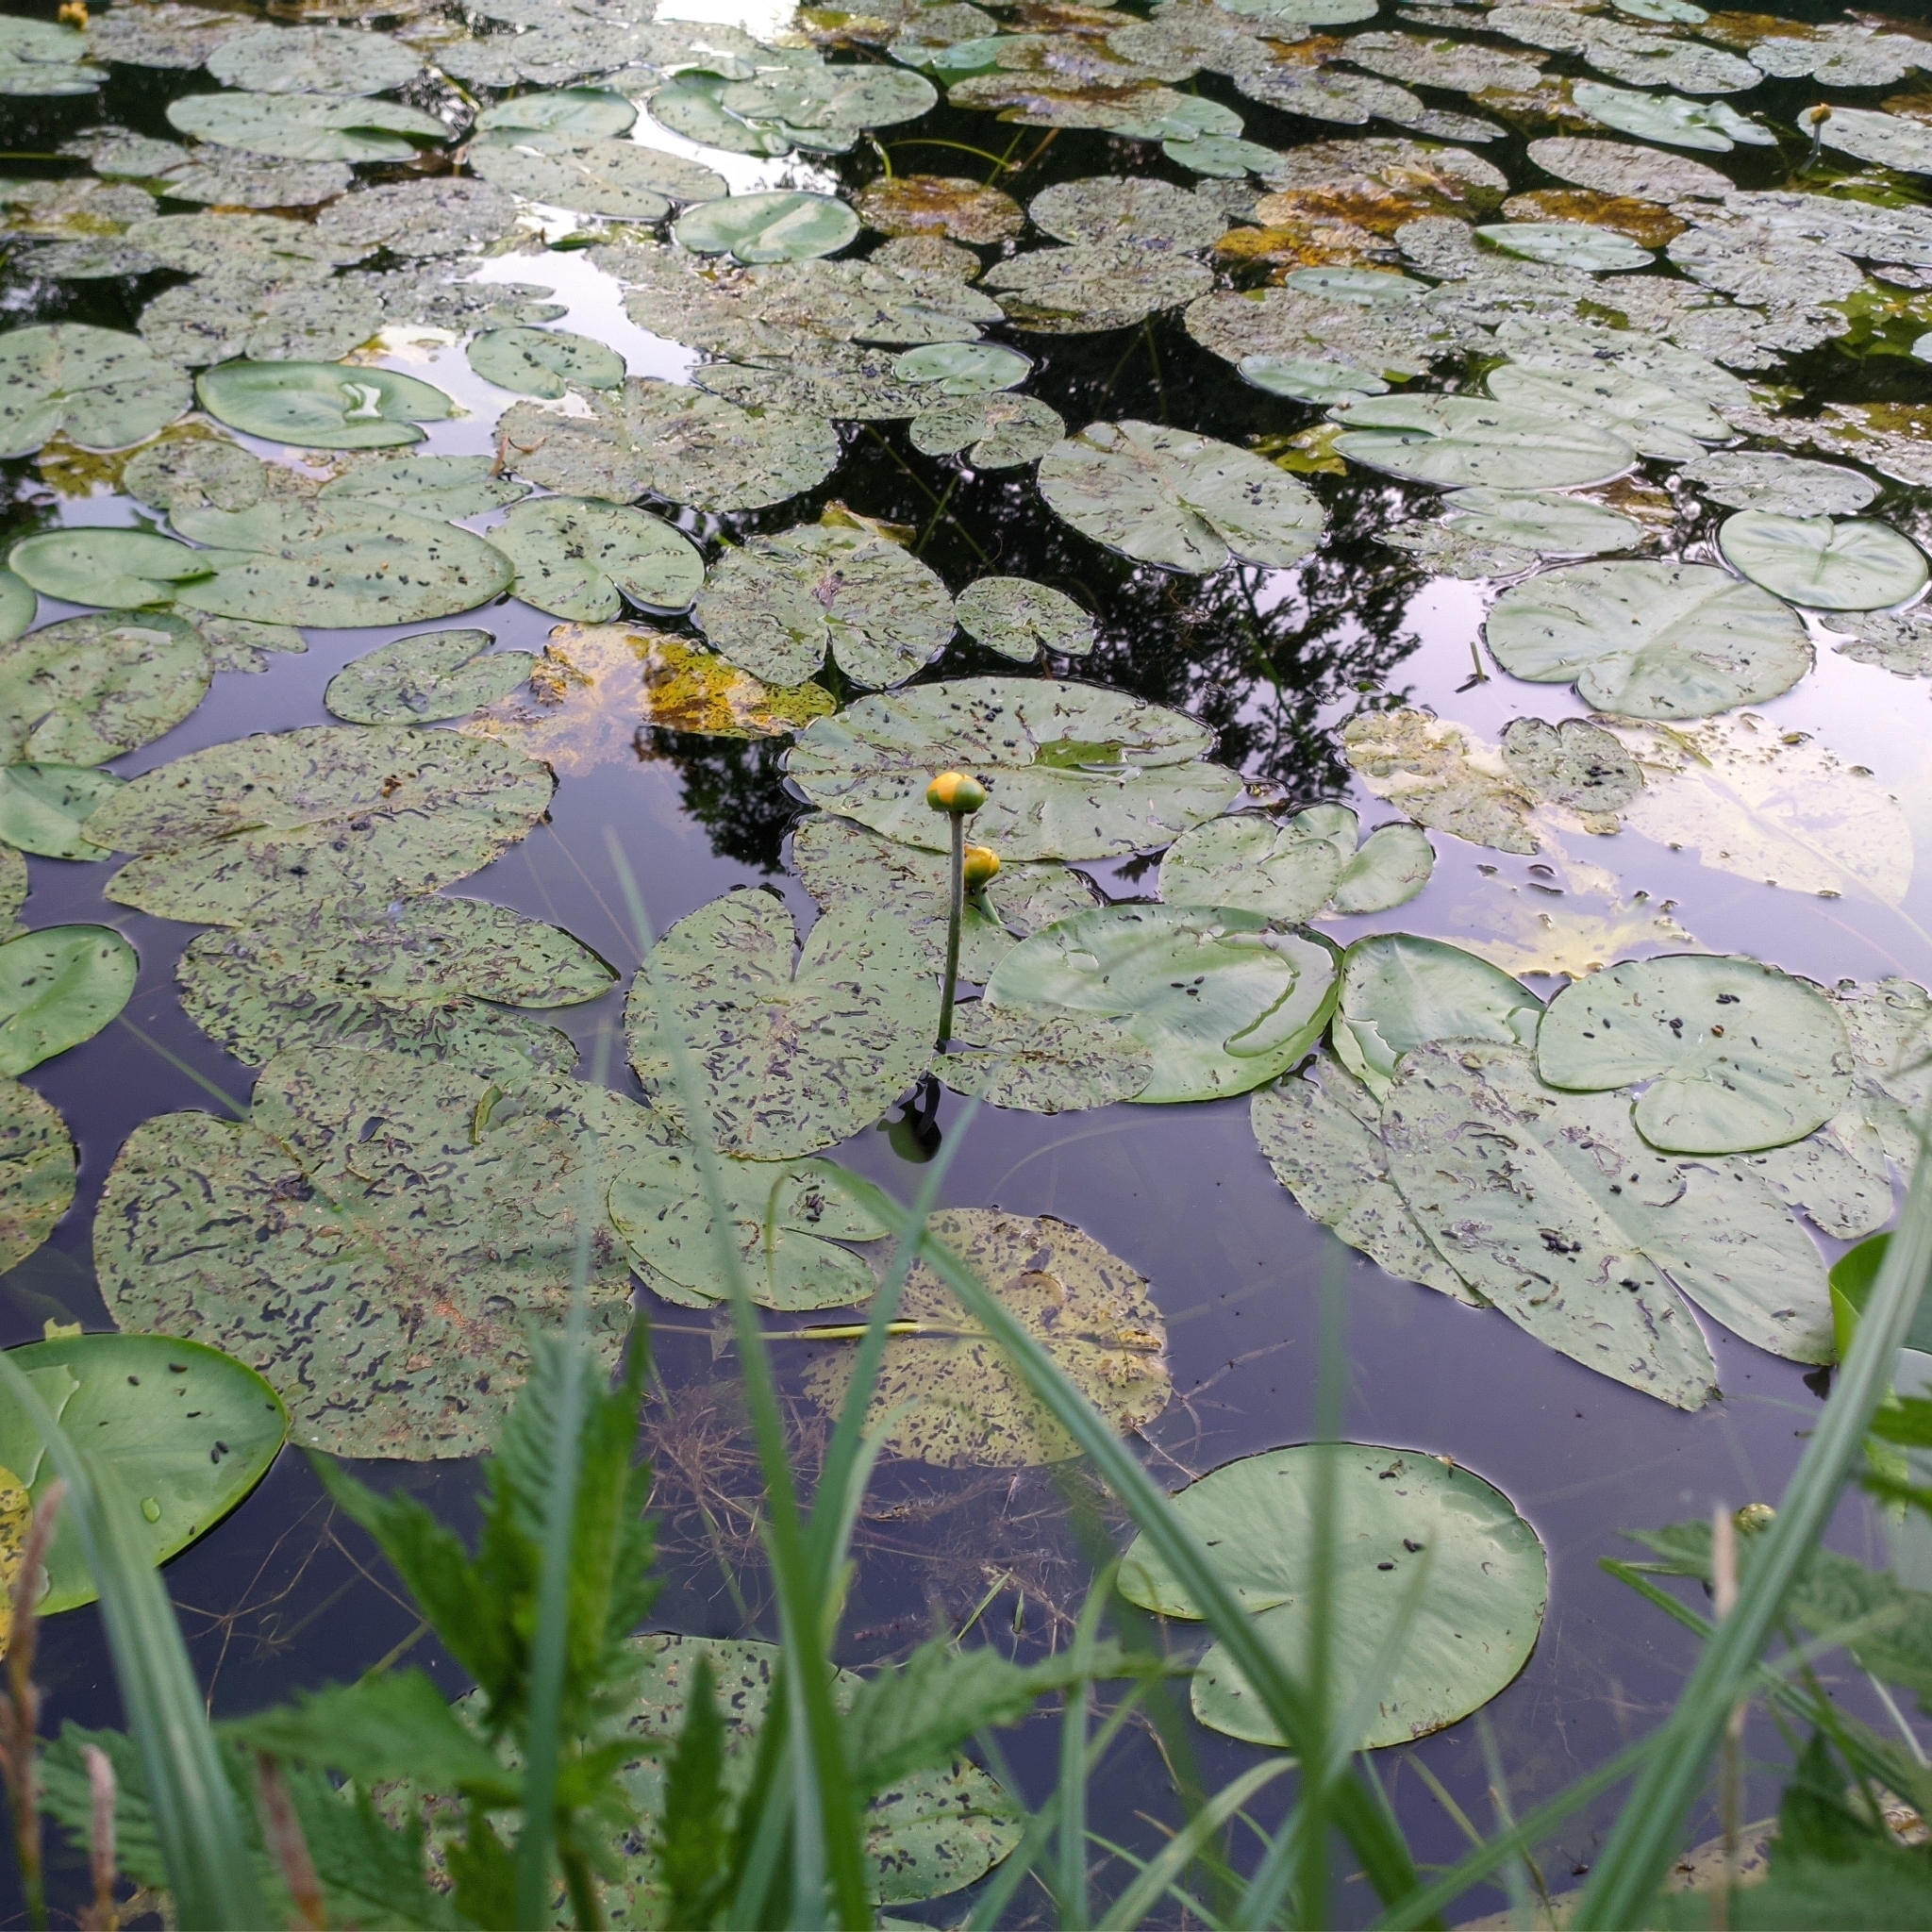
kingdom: Plantae
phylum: Tracheophyta
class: Magnoliopsida
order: Nymphaeales
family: Nymphaeaceae
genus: Nuphar
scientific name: Nuphar lutea
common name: Yellow water-lily
